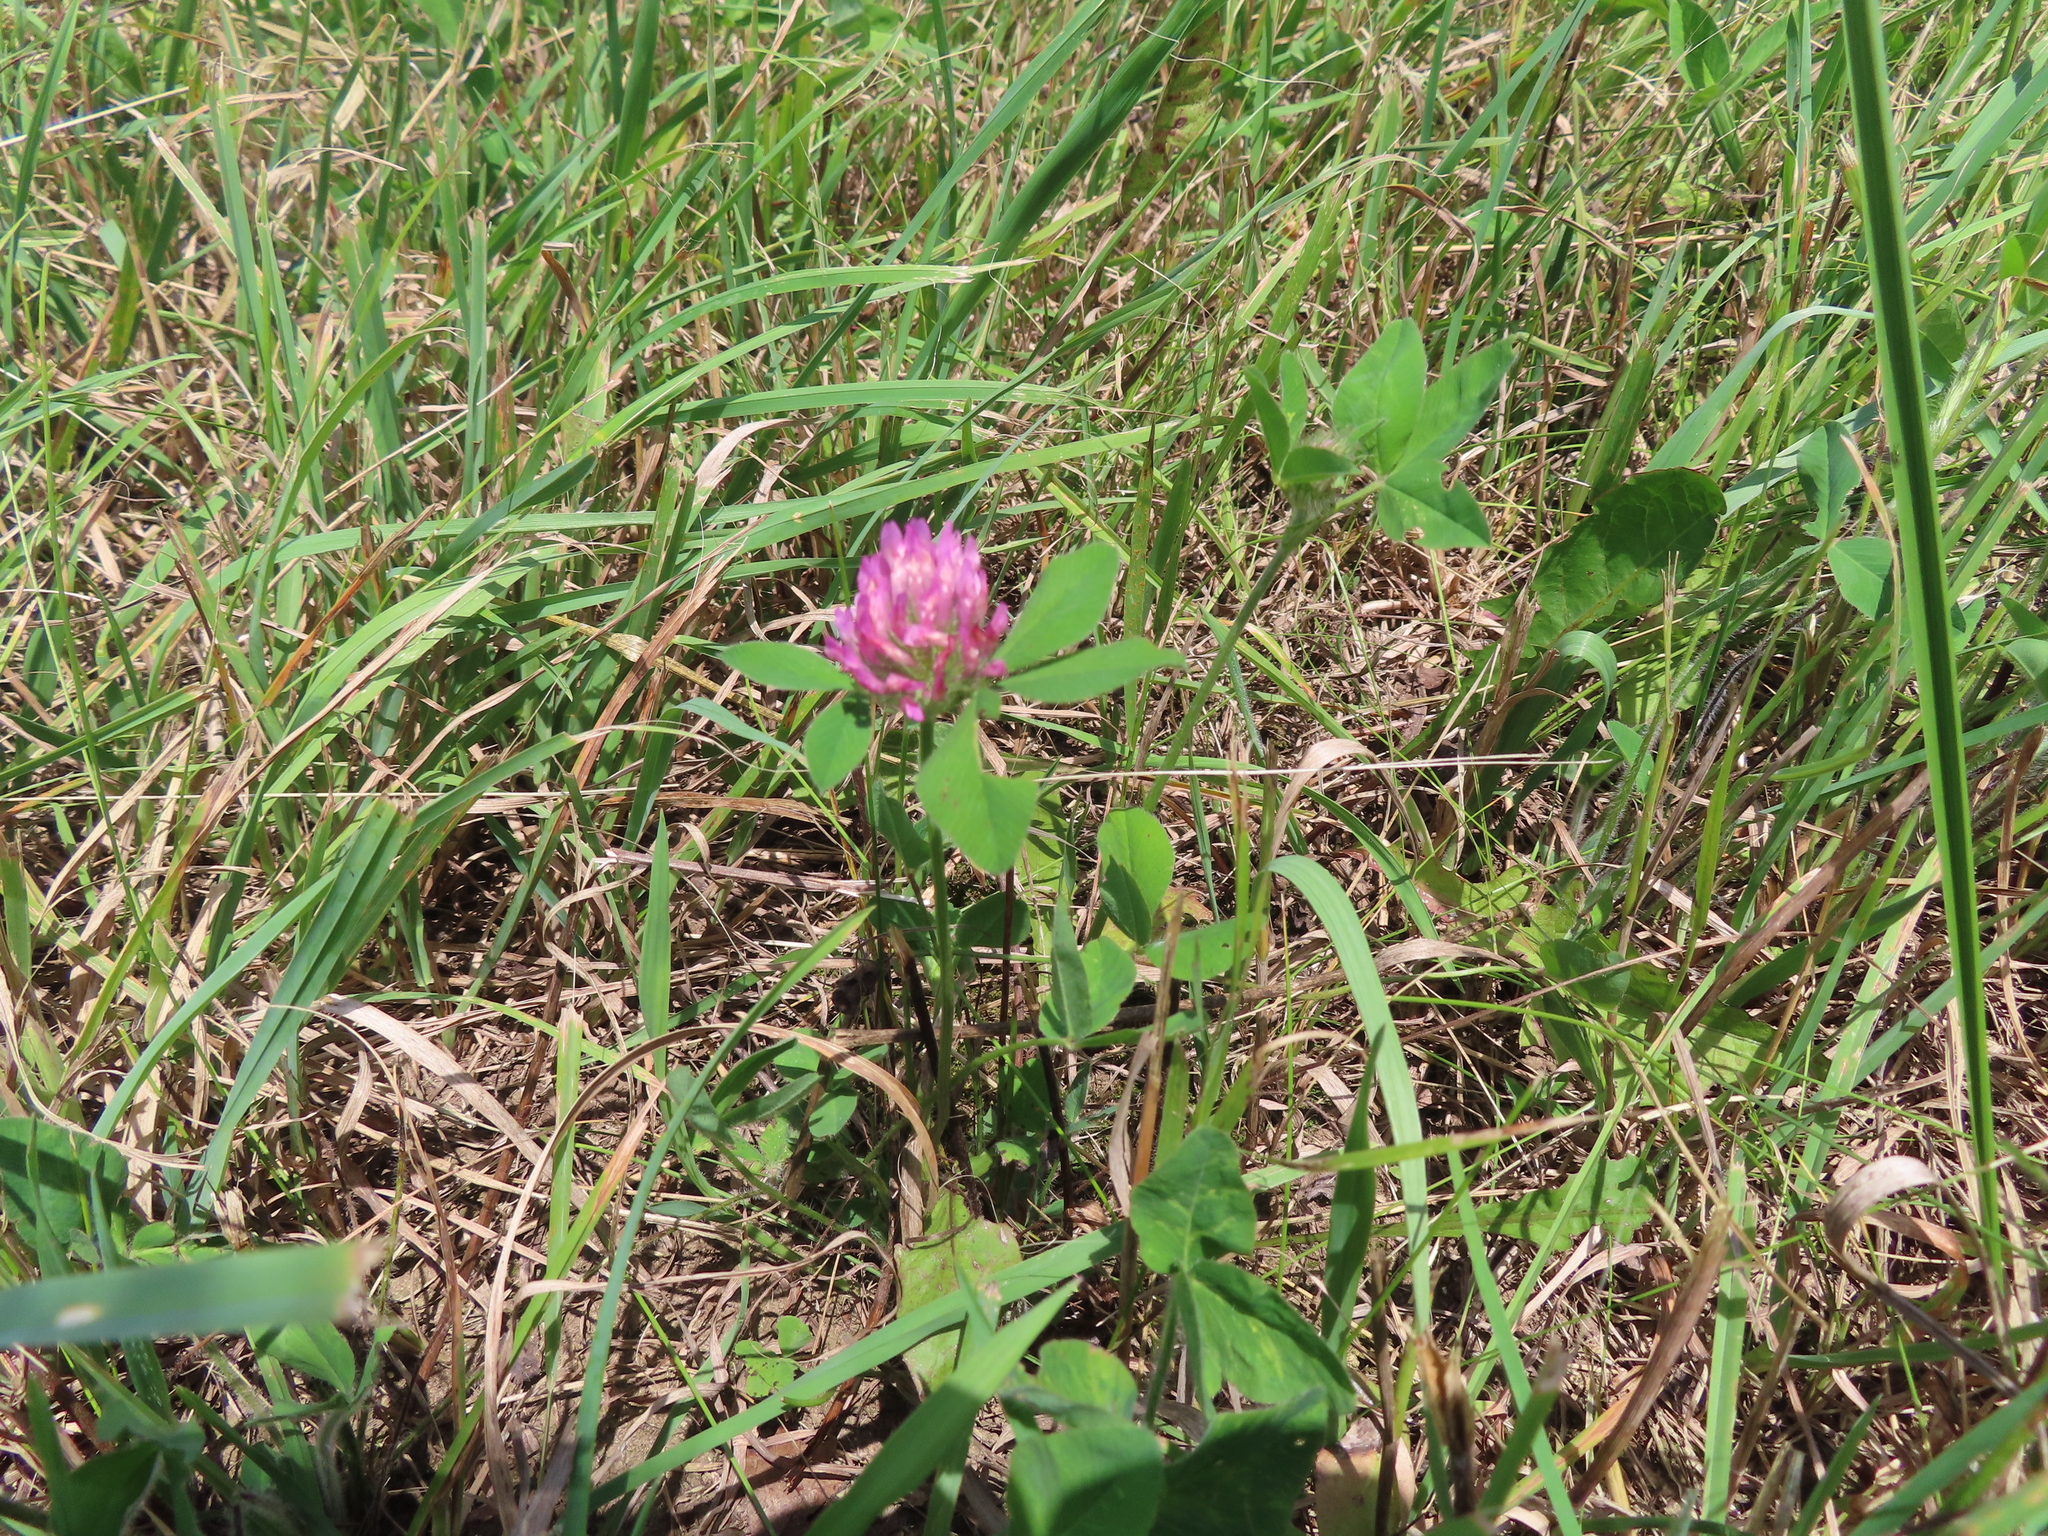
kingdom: Plantae
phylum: Tracheophyta
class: Magnoliopsida
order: Fabales
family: Fabaceae
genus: Trifolium
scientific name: Trifolium pratense
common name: Red clover
